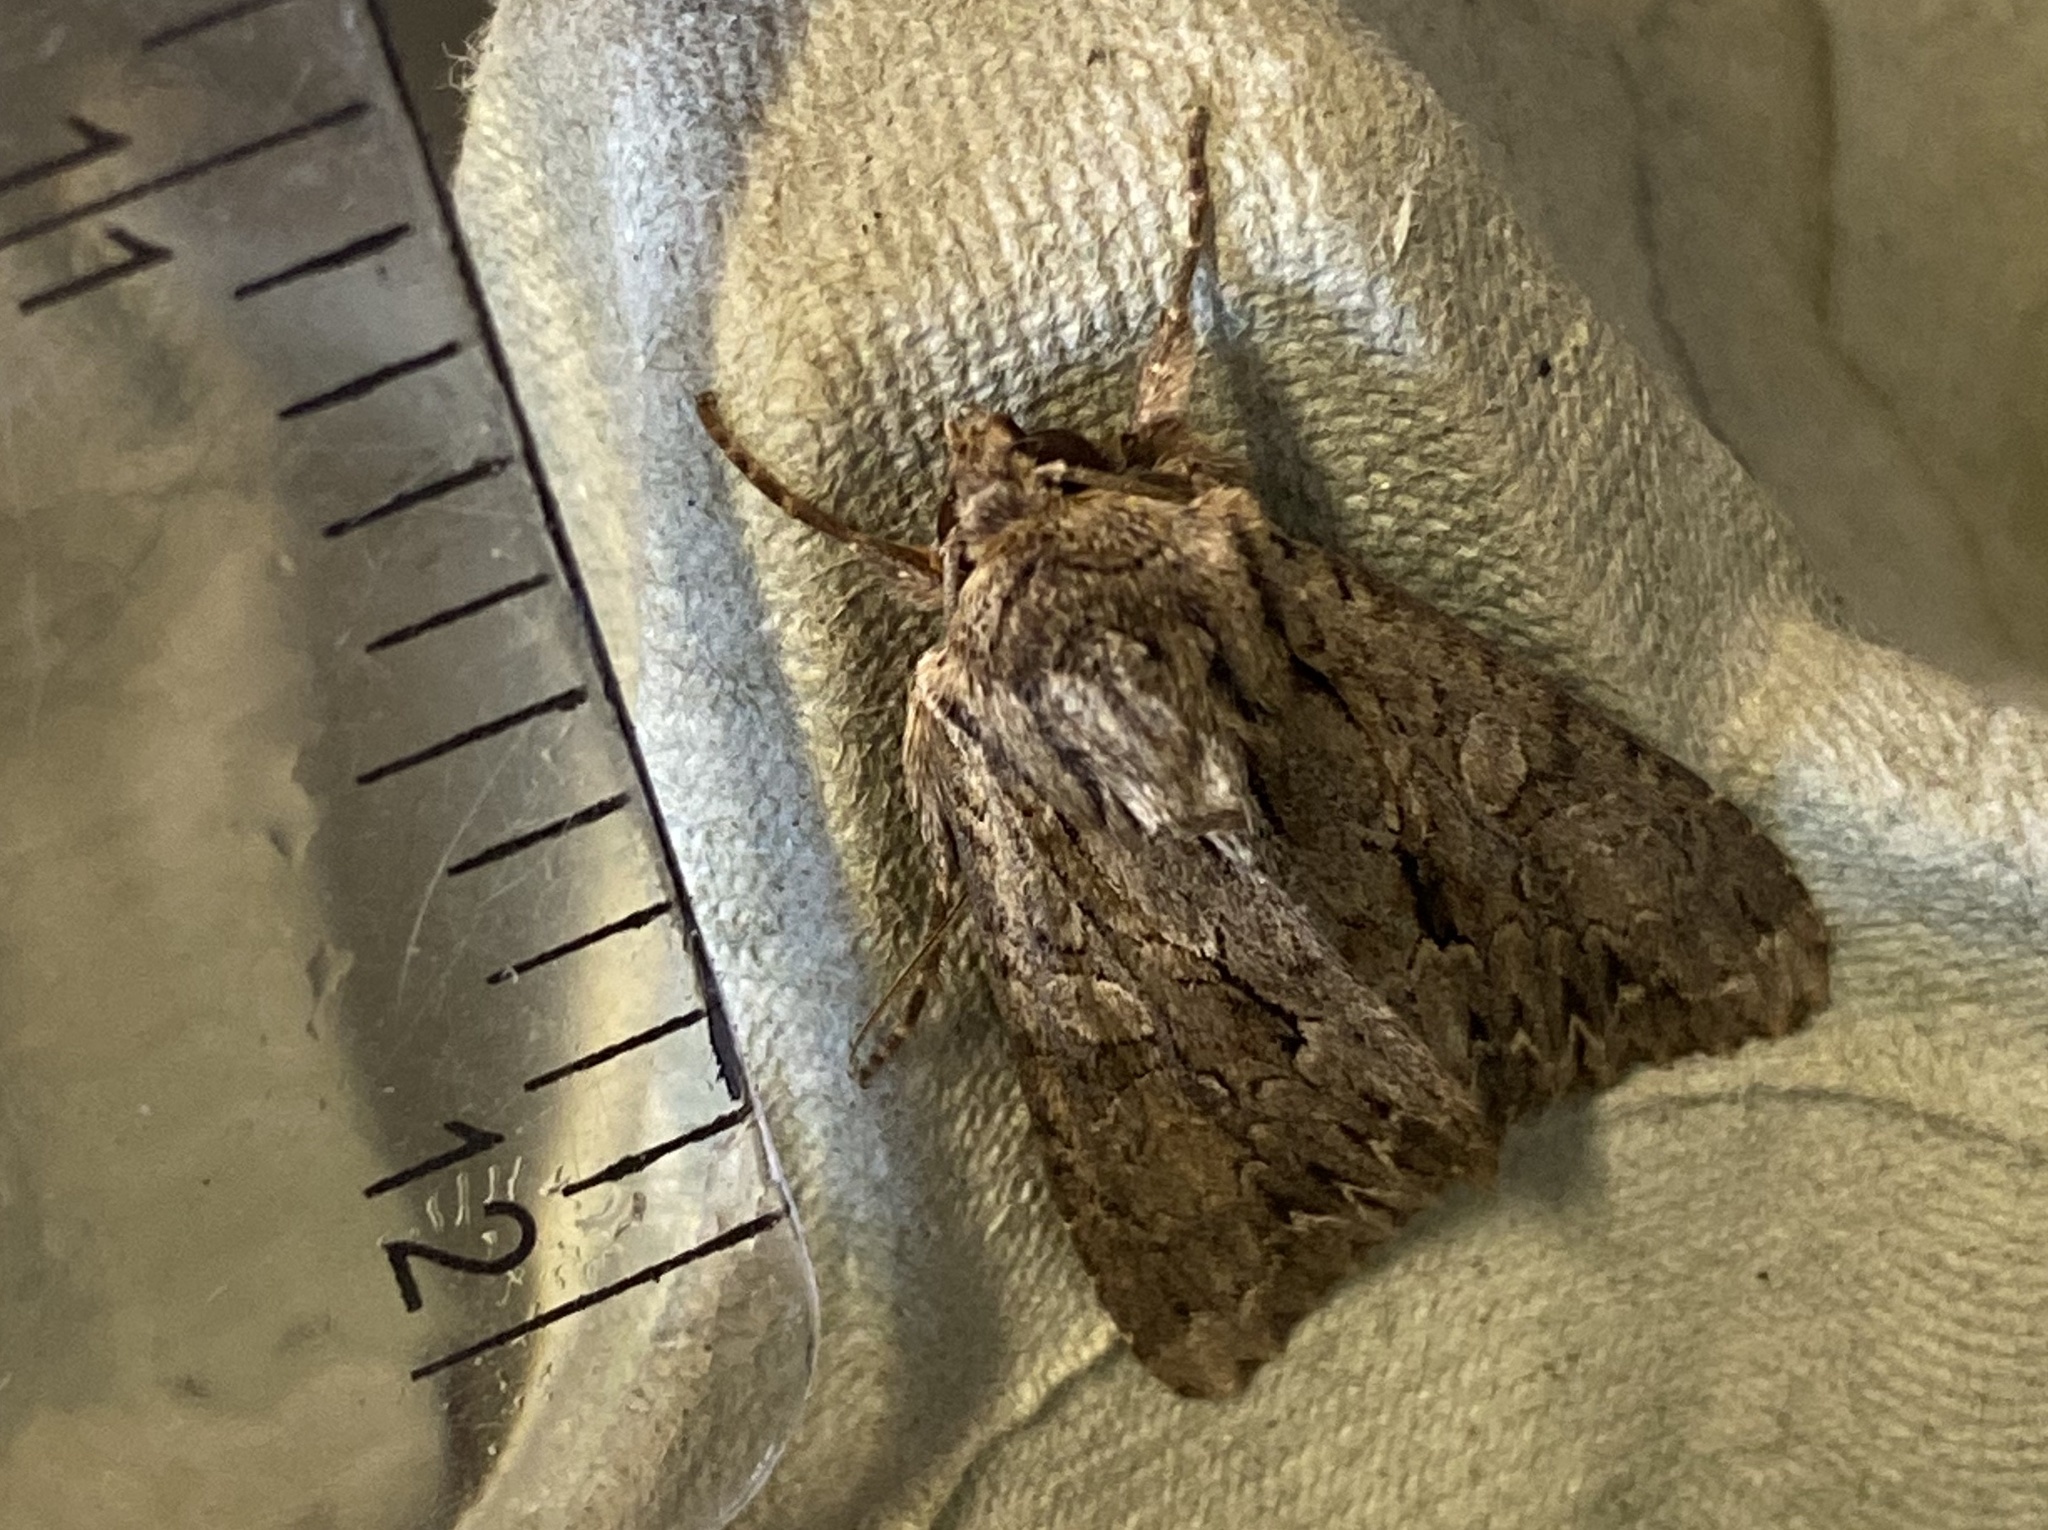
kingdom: Animalia
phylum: Arthropoda
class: Insecta
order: Lepidoptera
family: Noctuidae
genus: Apamea
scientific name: Apamea monoglypha
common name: Dark arches
